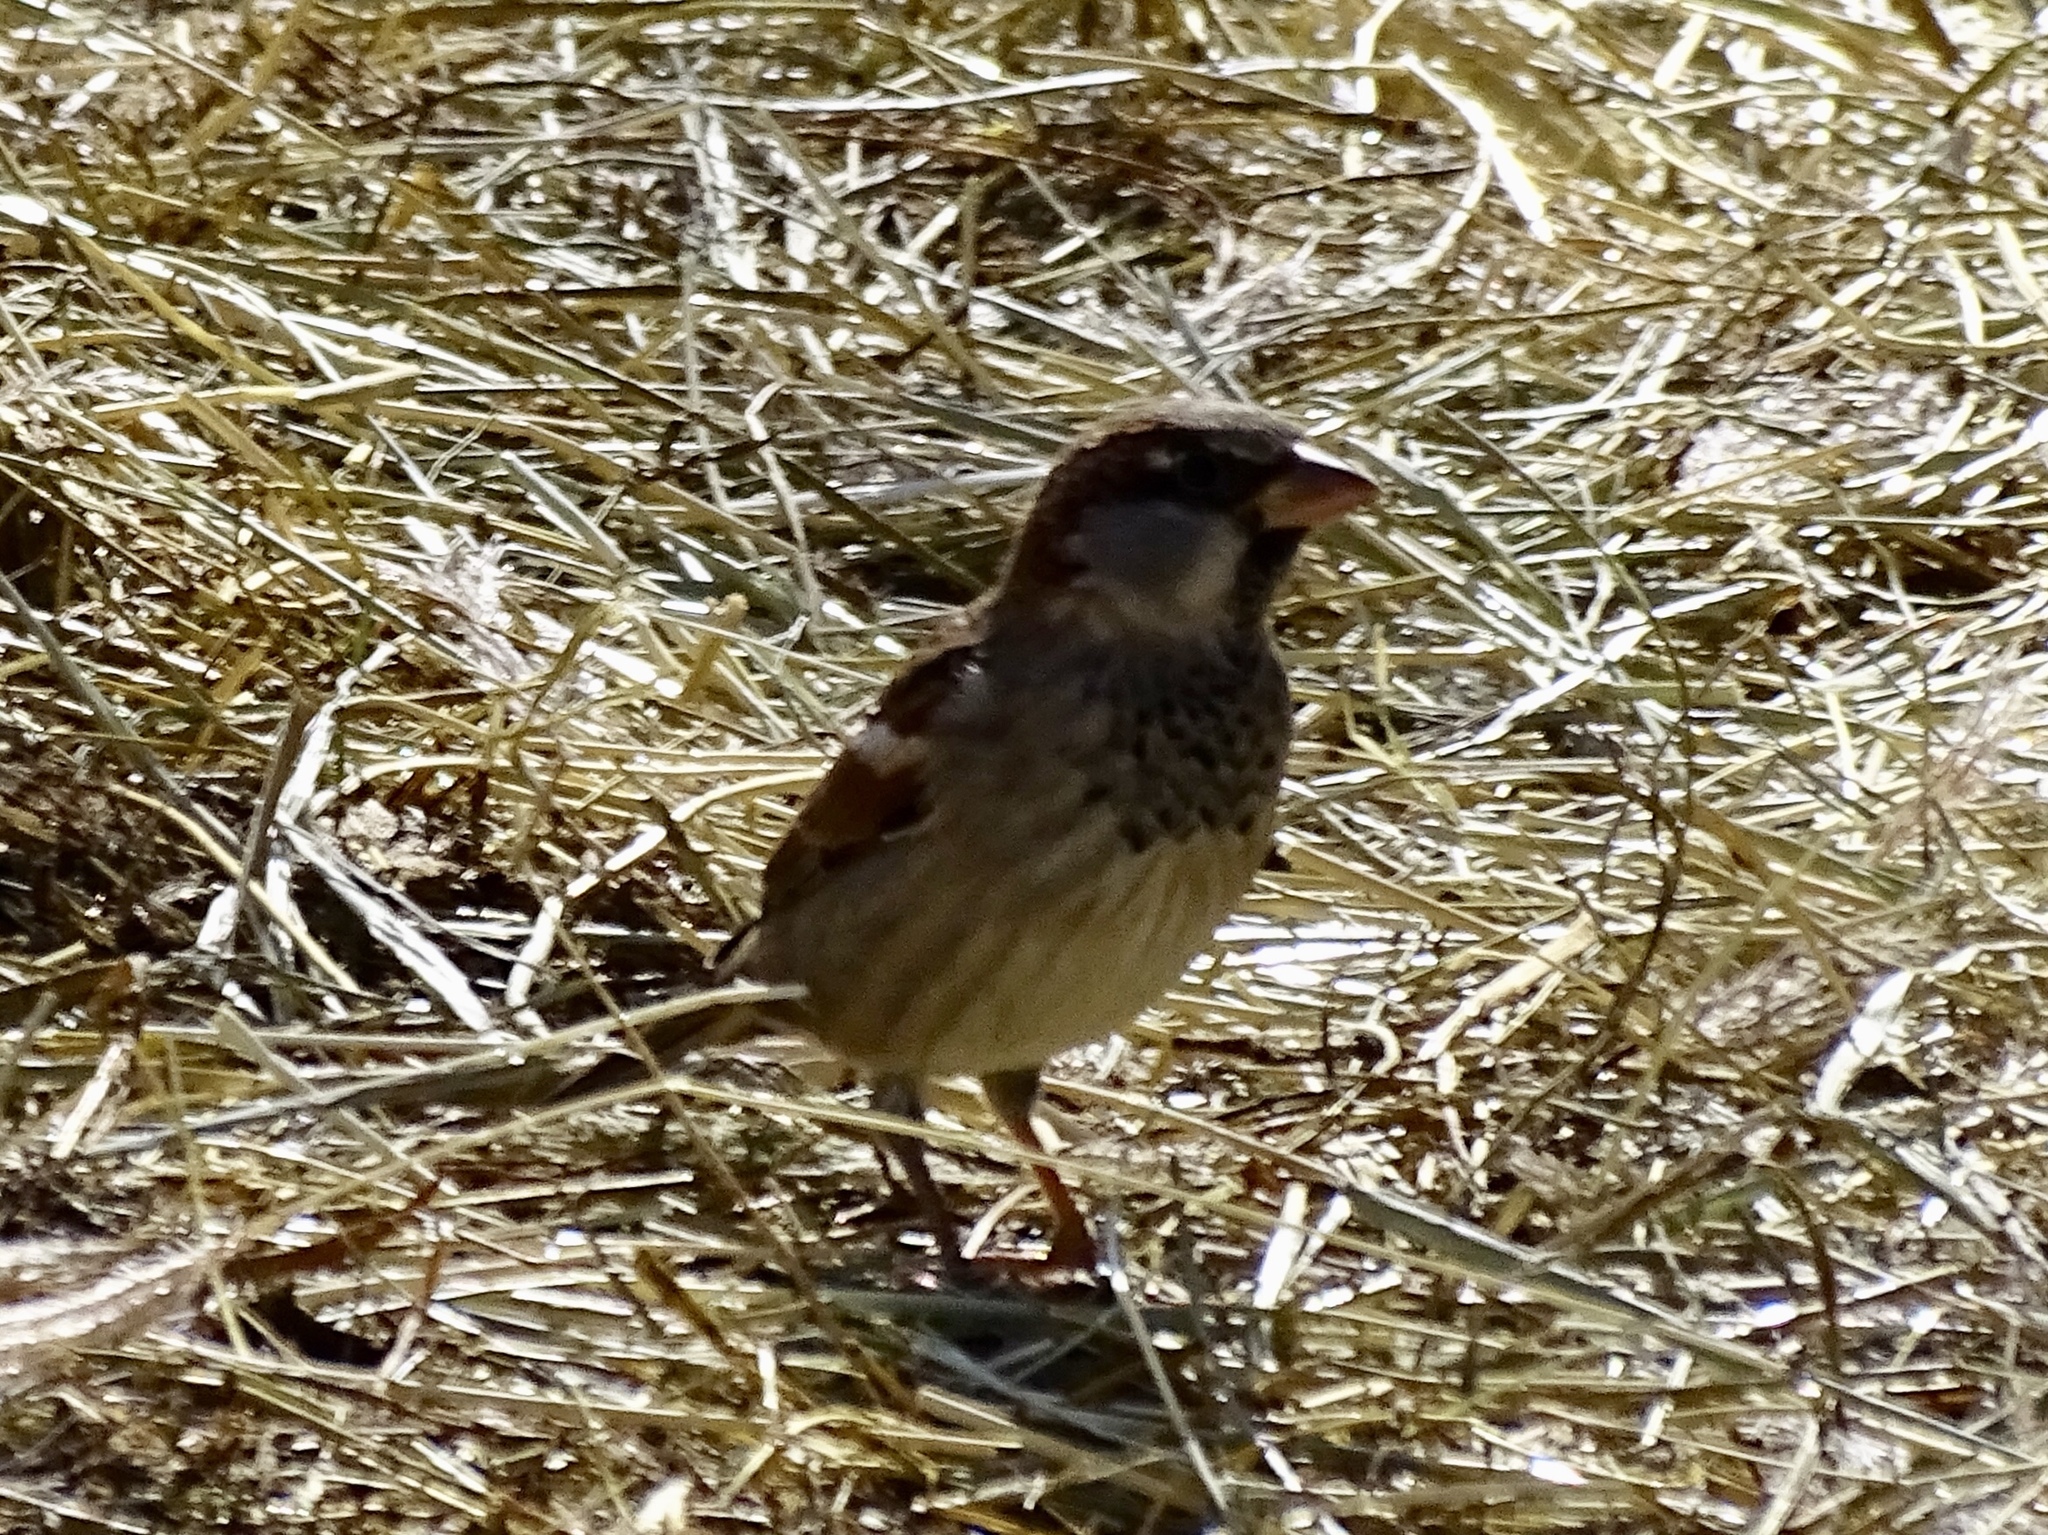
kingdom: Animalia
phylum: Chordata
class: Aves
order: Passeriformes
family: Passeridae
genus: Passer
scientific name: Passer domesticus
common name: House sparrow
